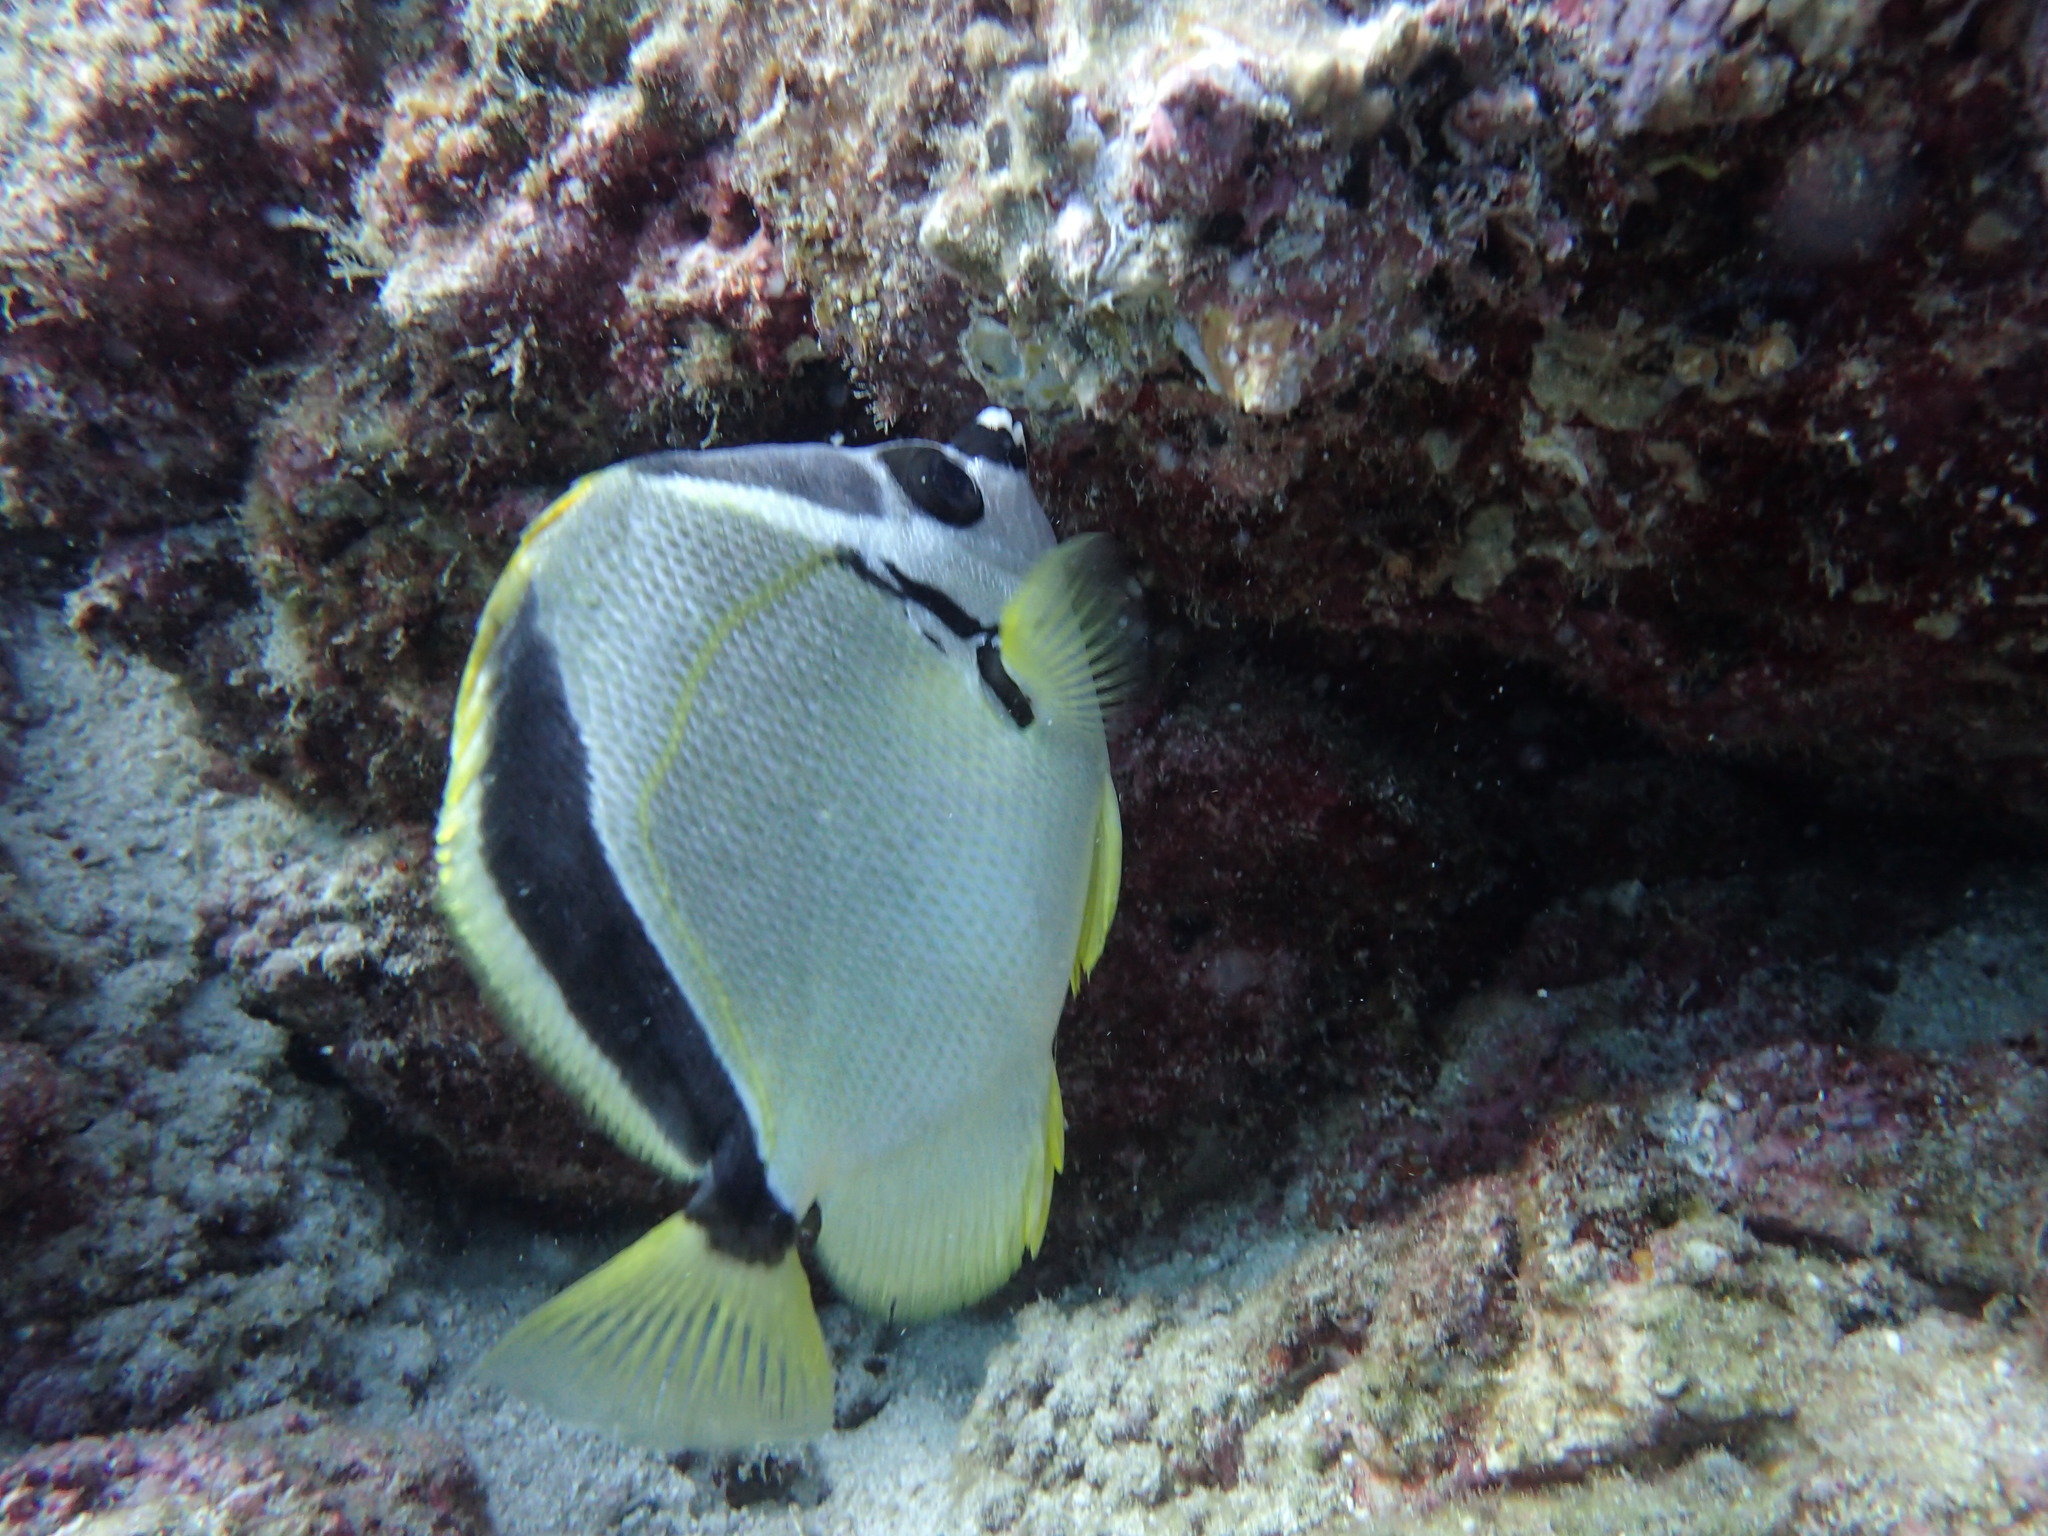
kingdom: Animalia
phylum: Chordata
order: Perciformes
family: Chaetodontidae
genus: Johnrandallia
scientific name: Johnrandallia nigrirostris
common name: Barberfish
